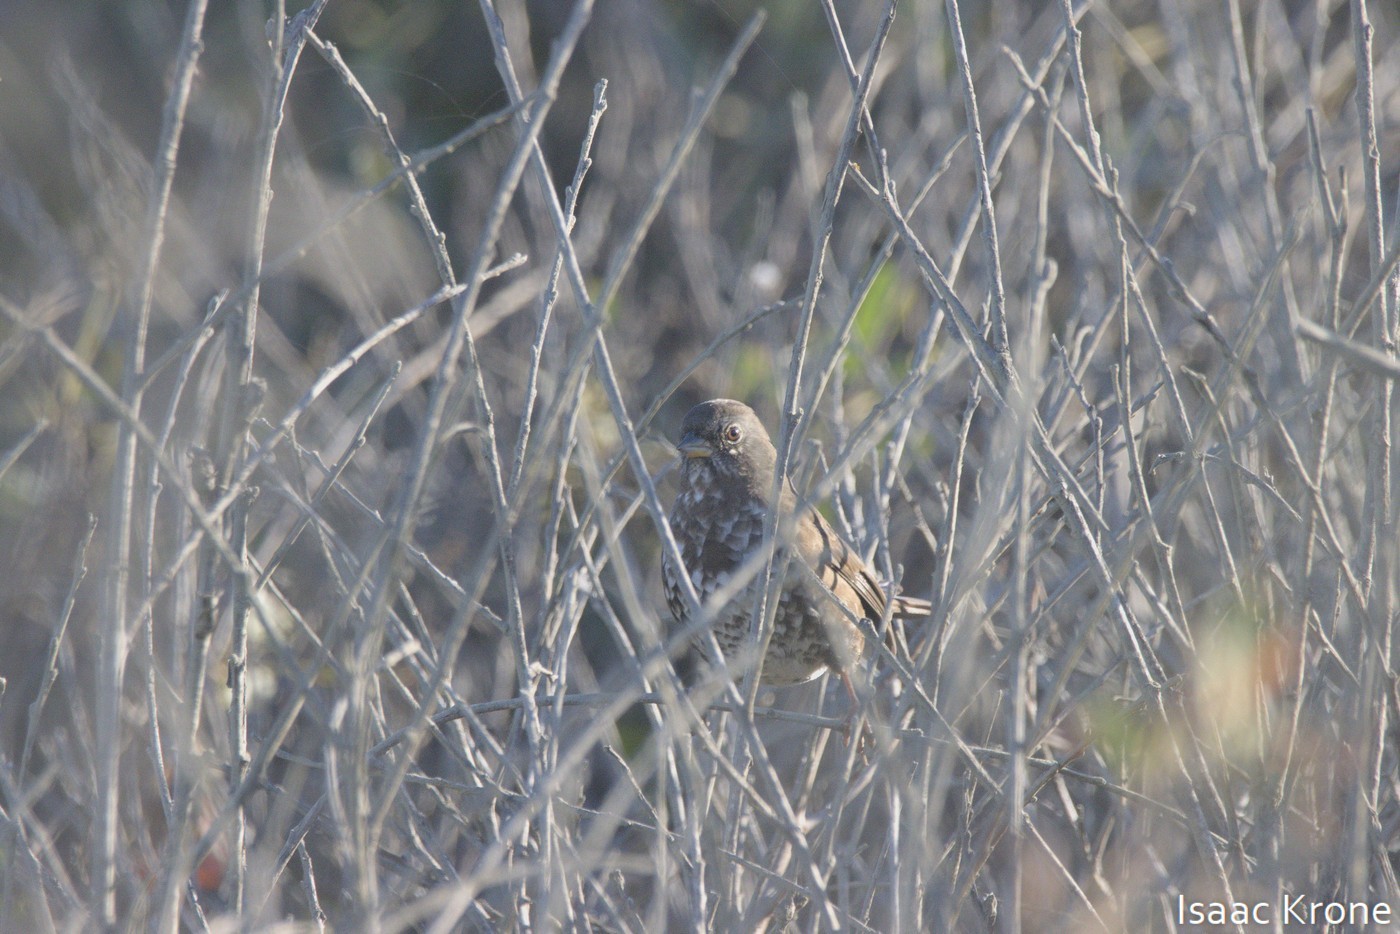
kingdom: Animalia
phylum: Chordata
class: Aves
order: Passeriformes
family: Passerellidae
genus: Passerella
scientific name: Passerella iliaca
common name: Fox sparrow
